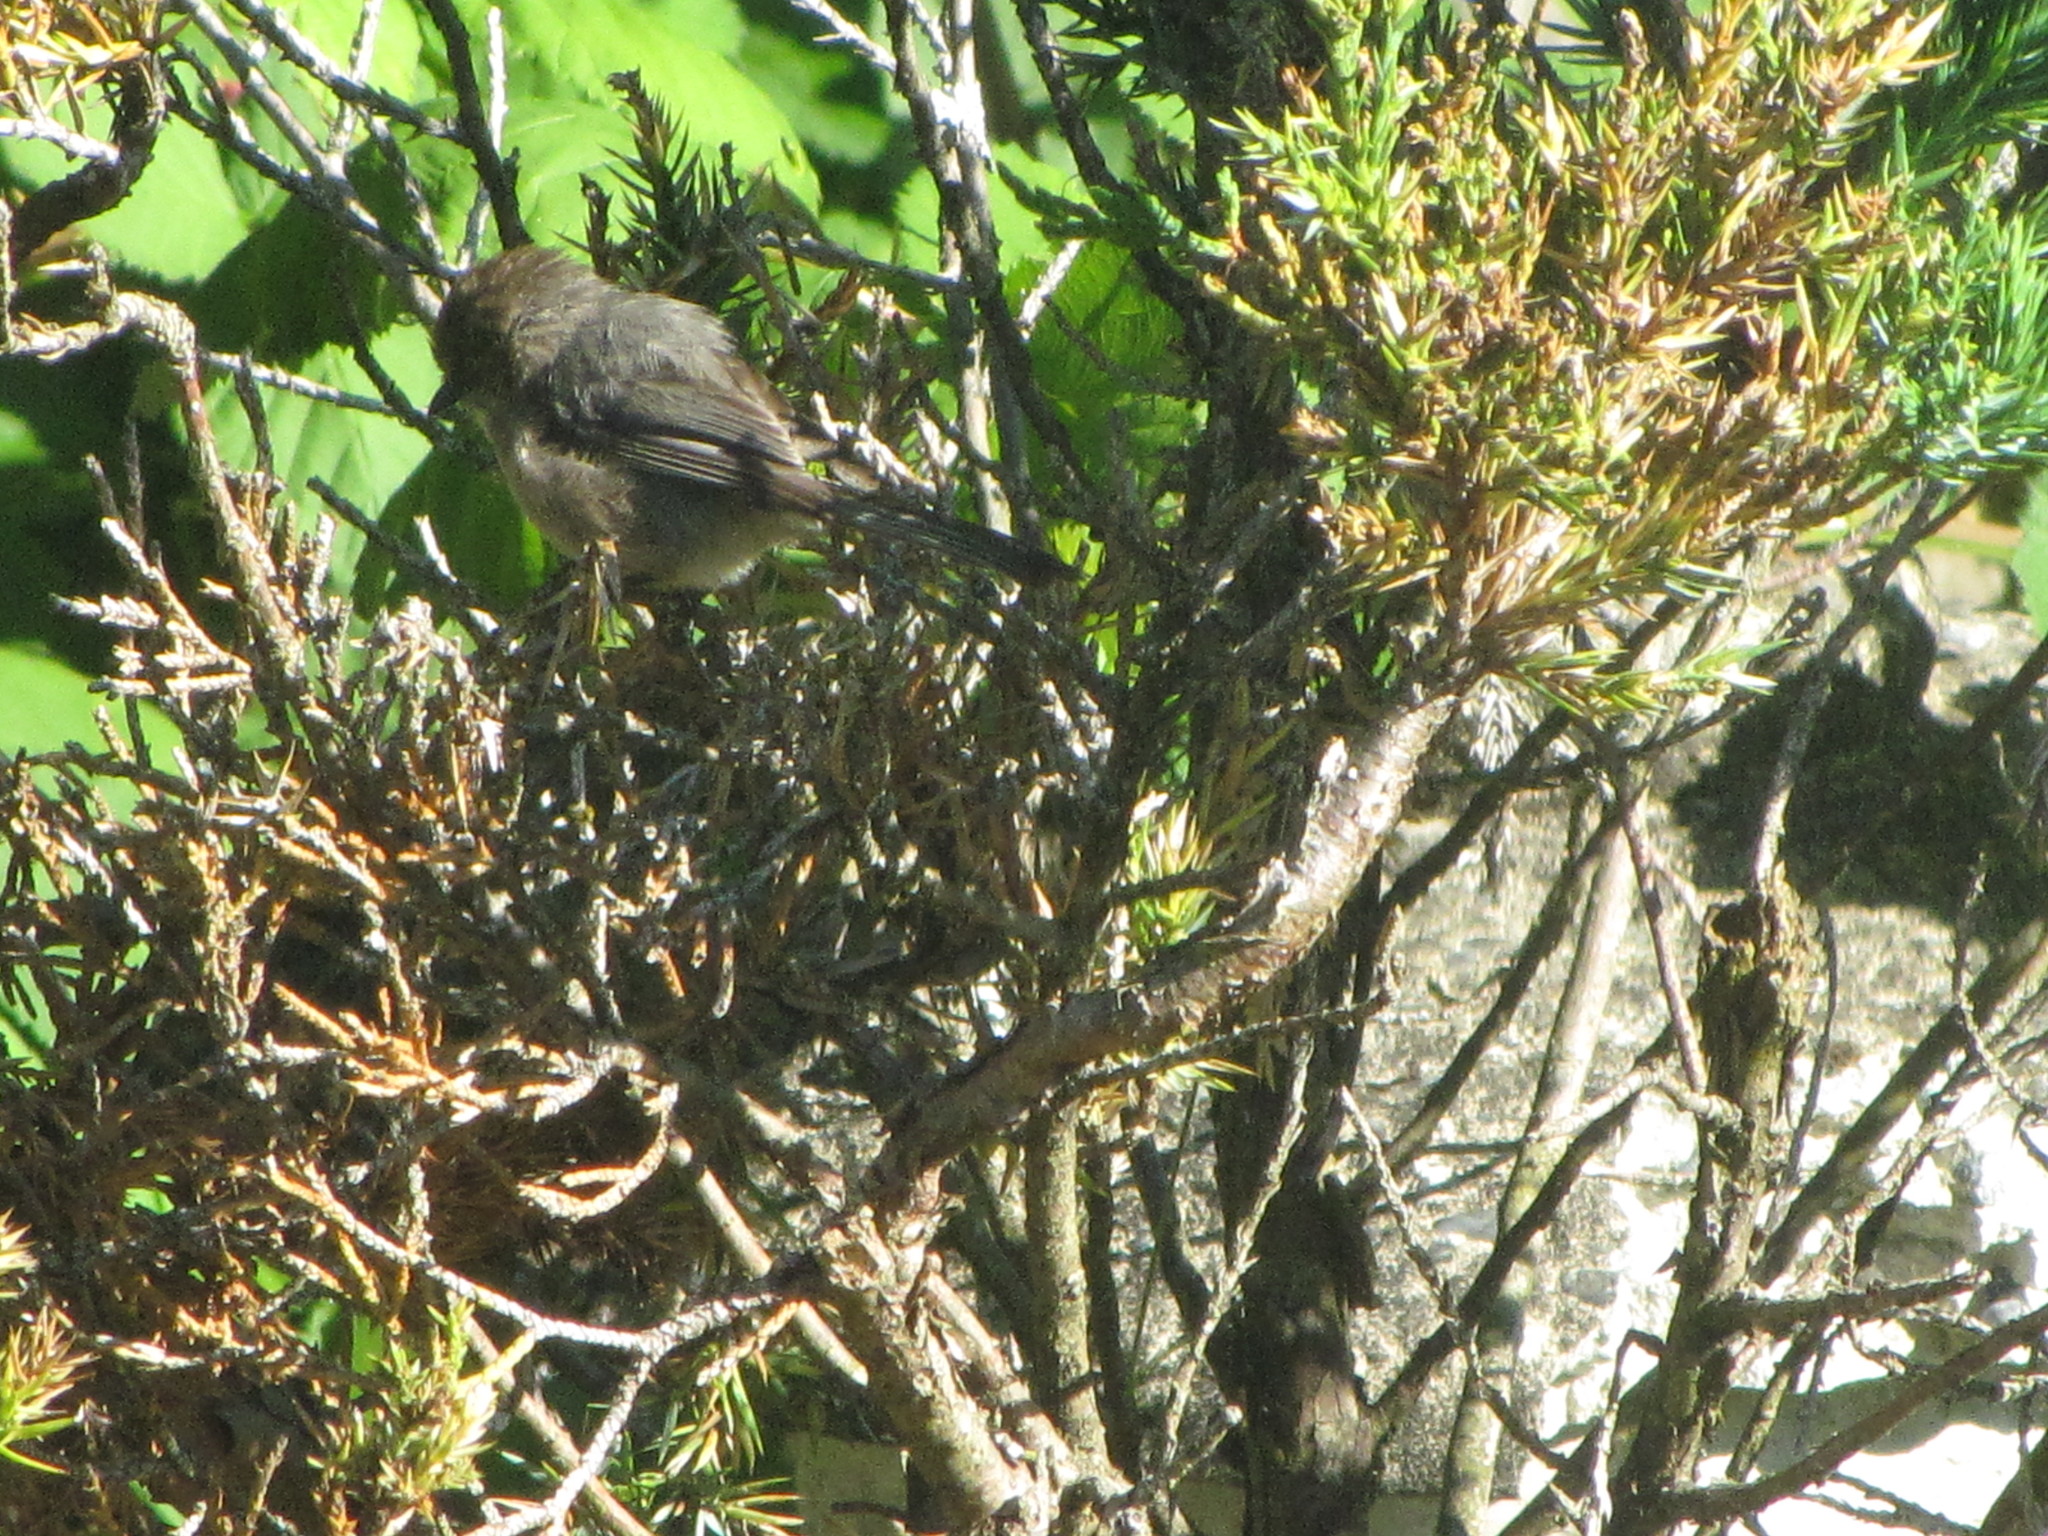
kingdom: Animalia
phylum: Chordata
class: Aves
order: Passeriformes
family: Aegithalidae
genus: Psaltriparus
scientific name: Psaltriparus minimus
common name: American bushtit
